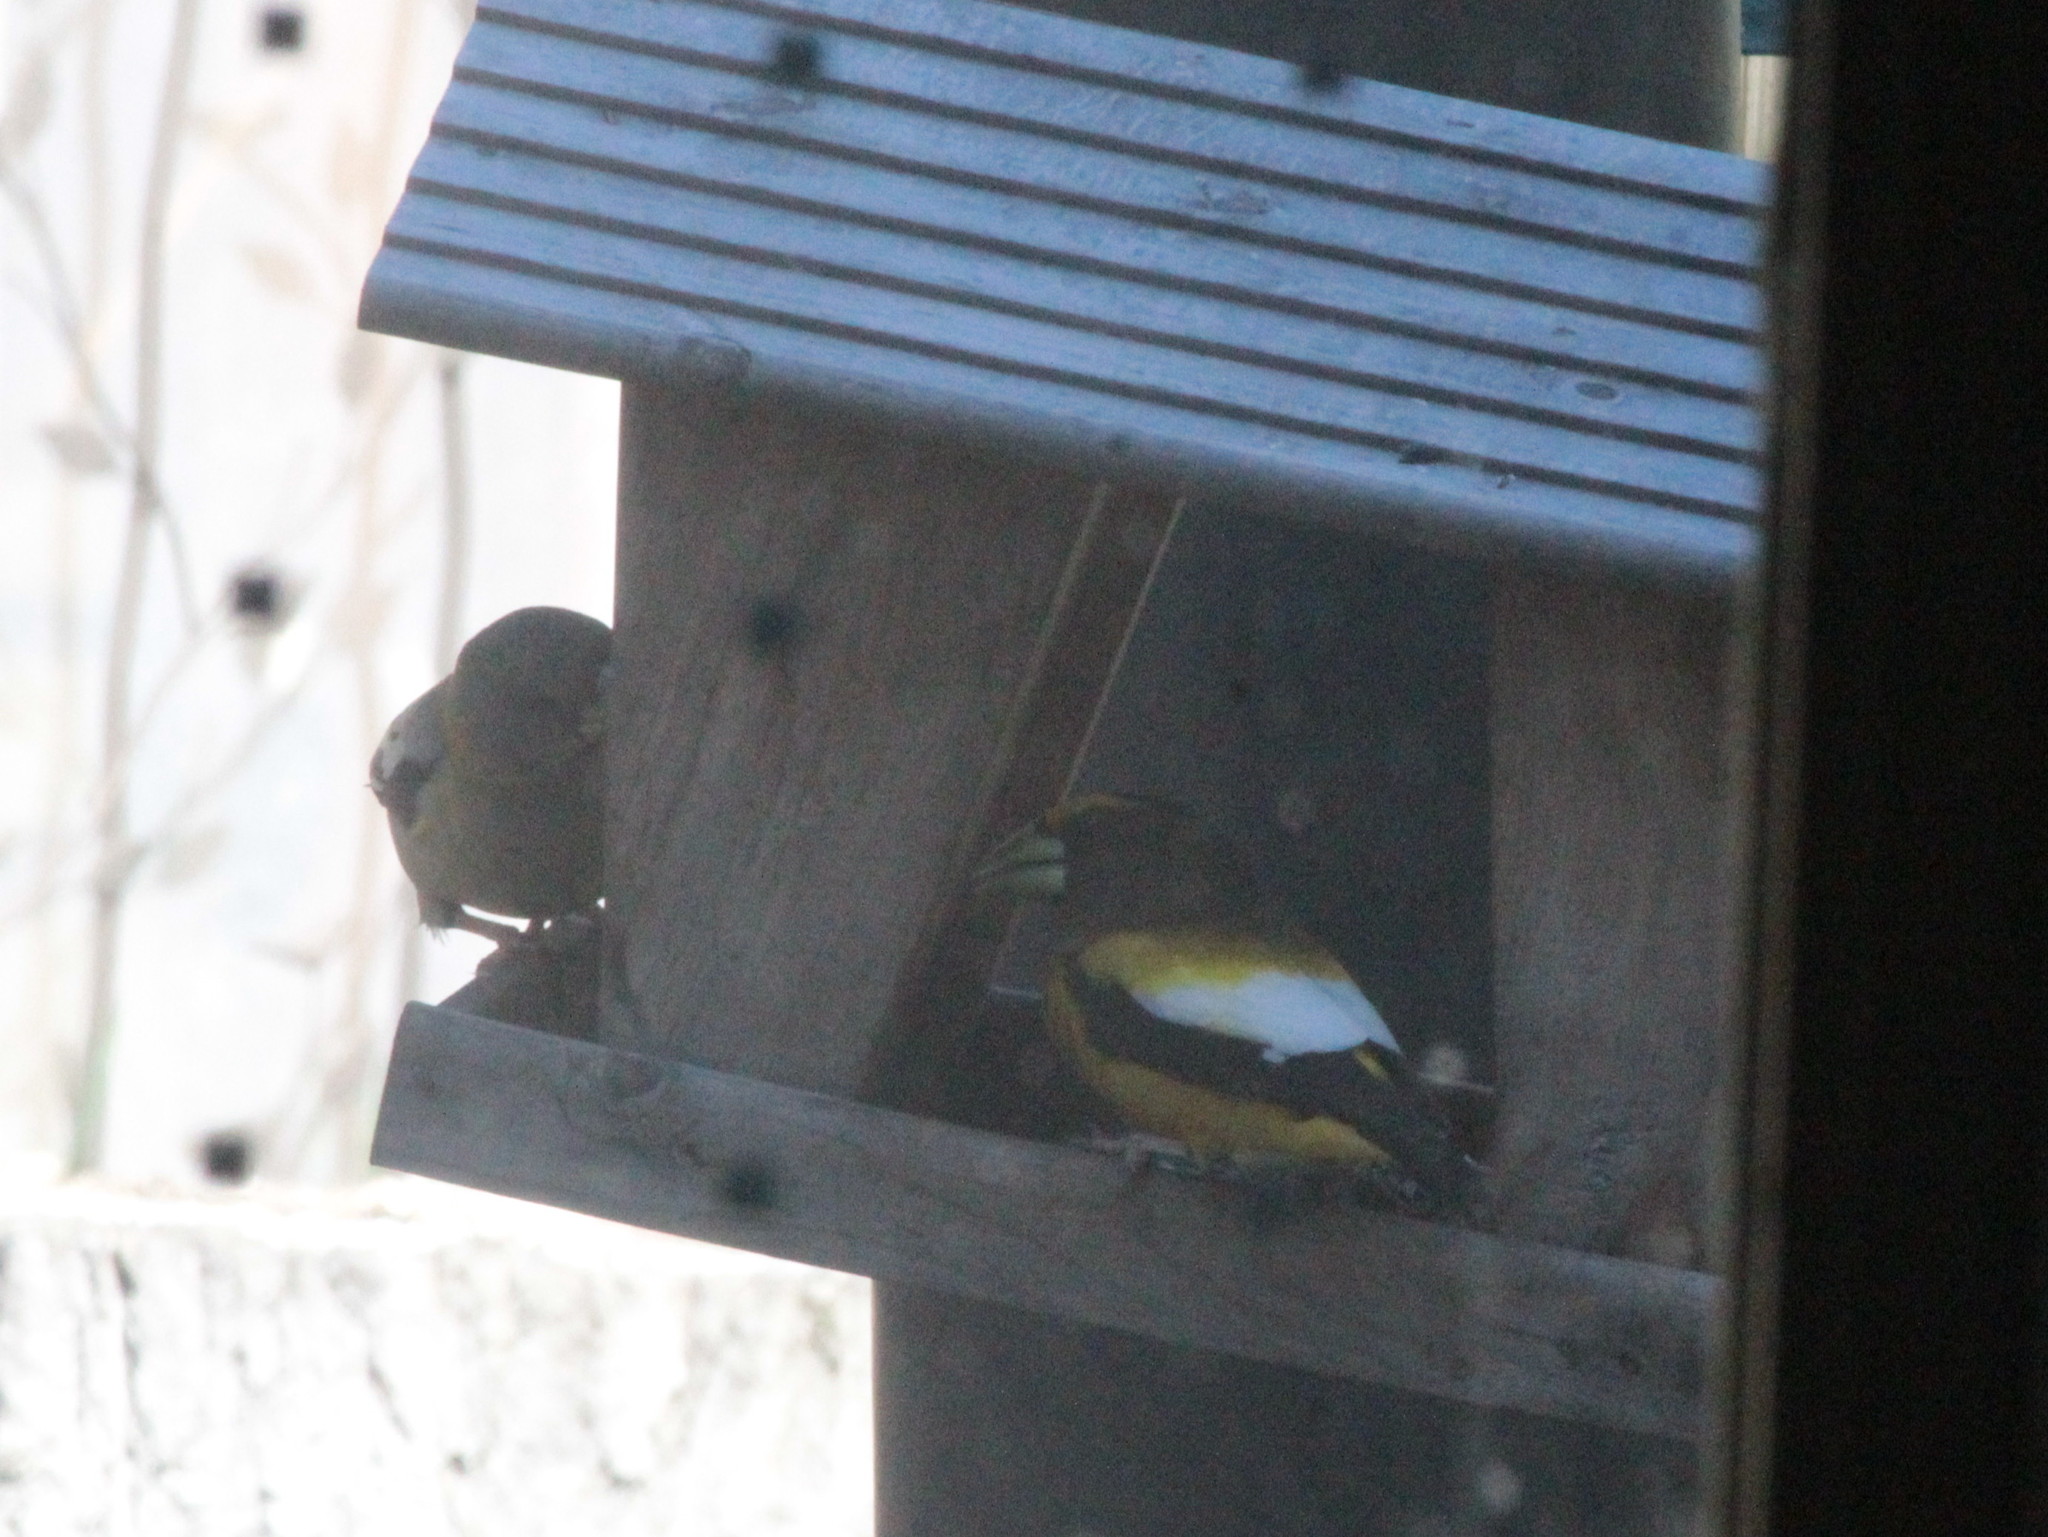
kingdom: Animalia
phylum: Chordata
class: Aves
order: Passeriformes
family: Fringillidae
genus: Hesperiphona
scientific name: Hesperiphona vespertina
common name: Evening grosbeak
